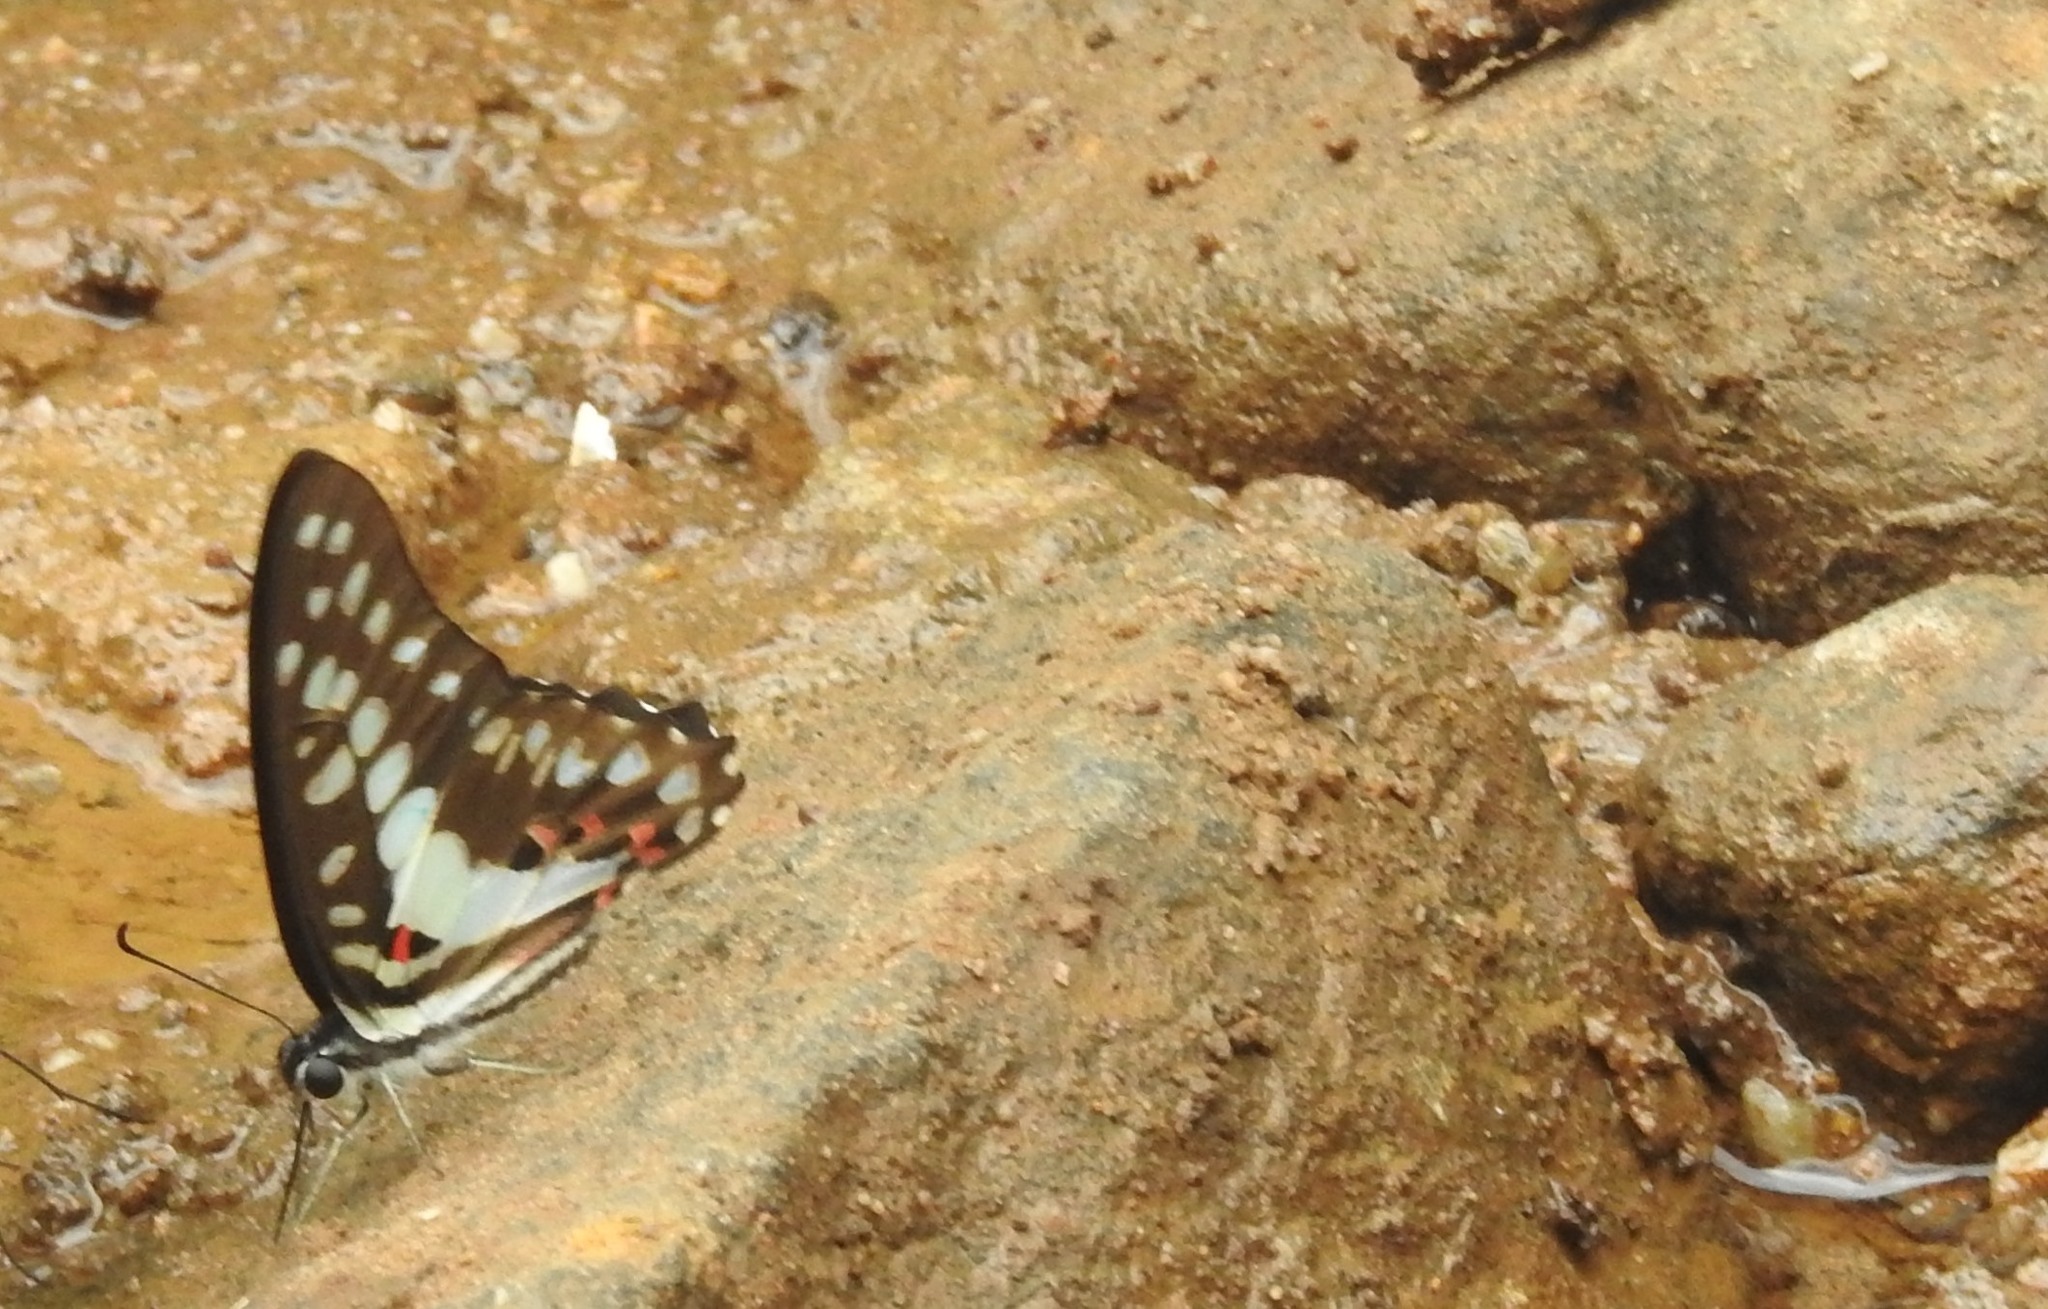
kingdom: Animalia
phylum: Arthropoda
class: Insecta
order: Lepidoptera
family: Papilionidae
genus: Graphium
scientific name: Graphium doson
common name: Common jay
